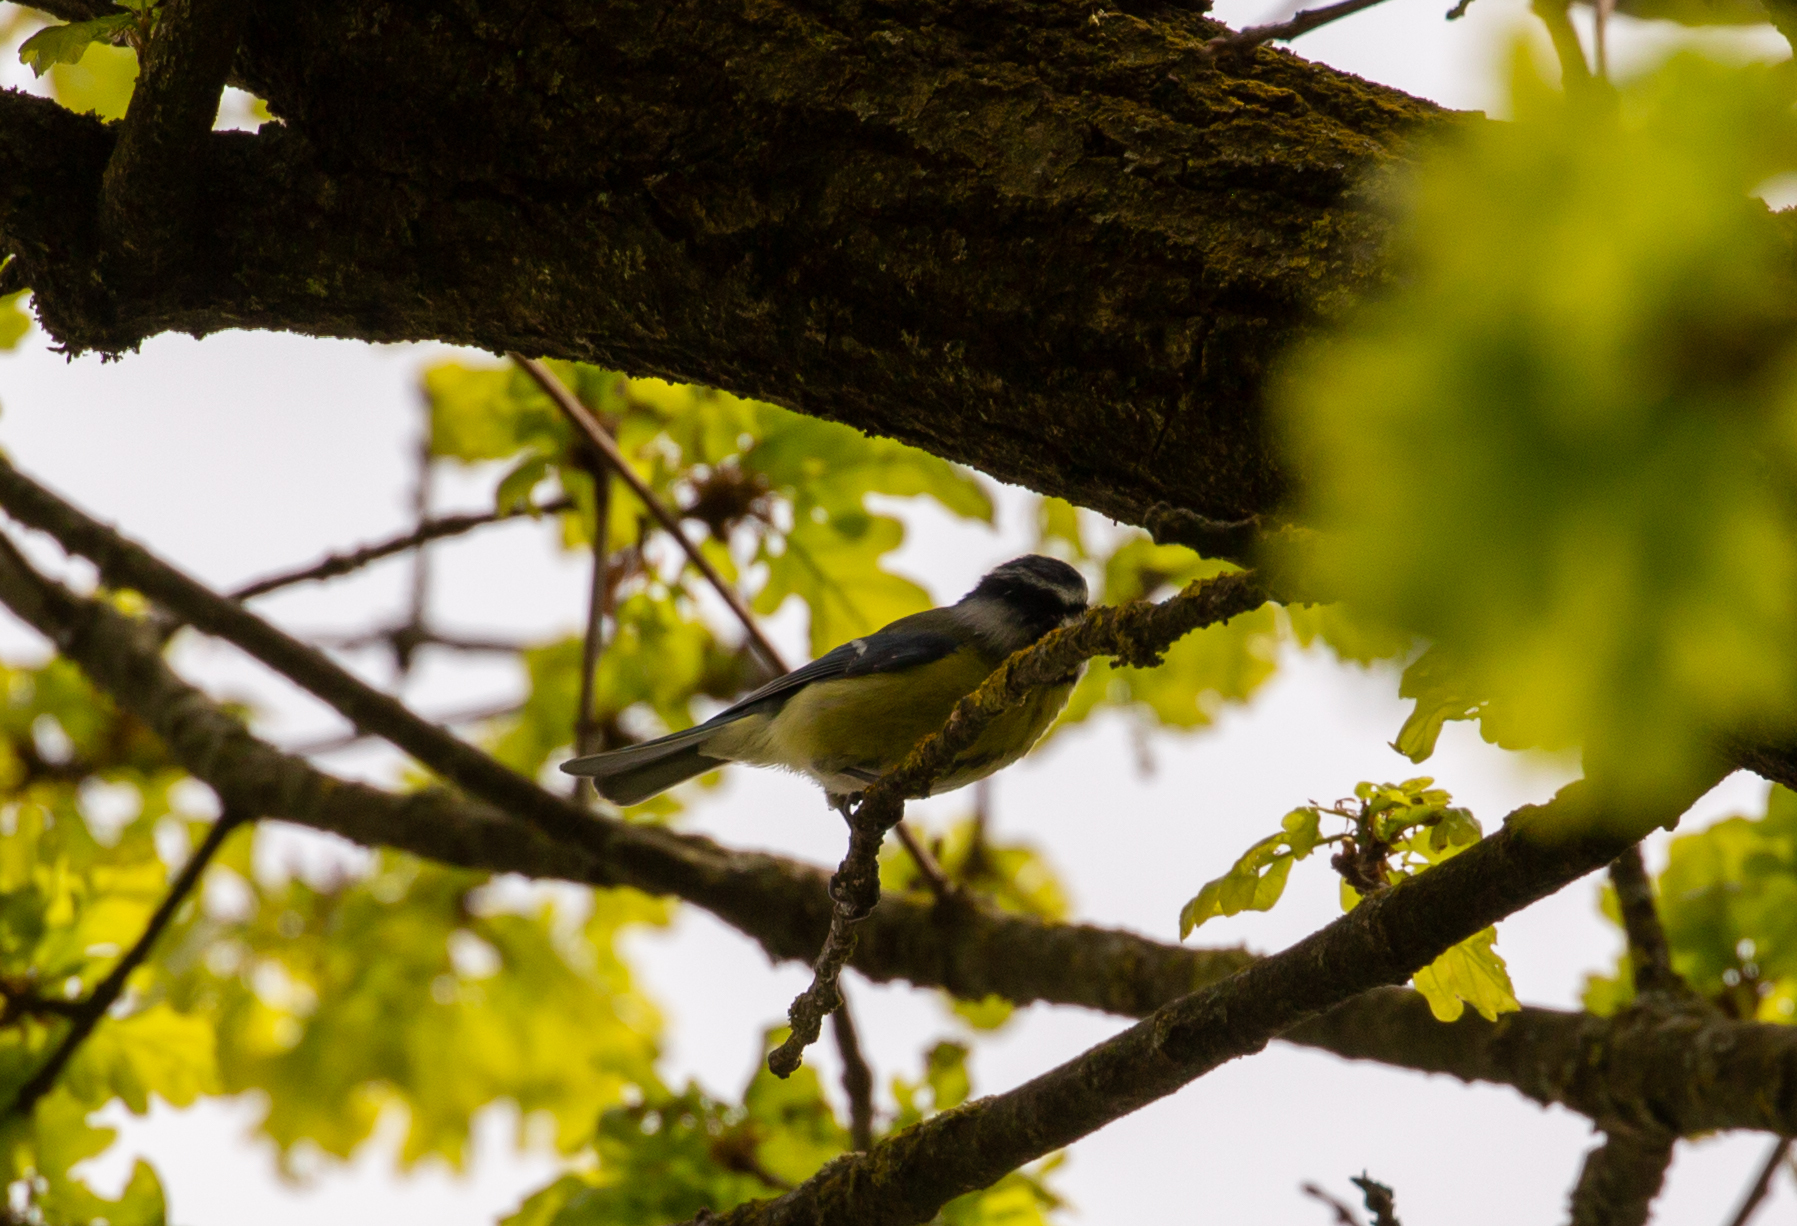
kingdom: Animalia
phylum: Chordata
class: Aves
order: Passeriformes
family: Paridae
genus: Cyanistes
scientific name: Cyanistes caeruleus
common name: Eurasian blue tit
